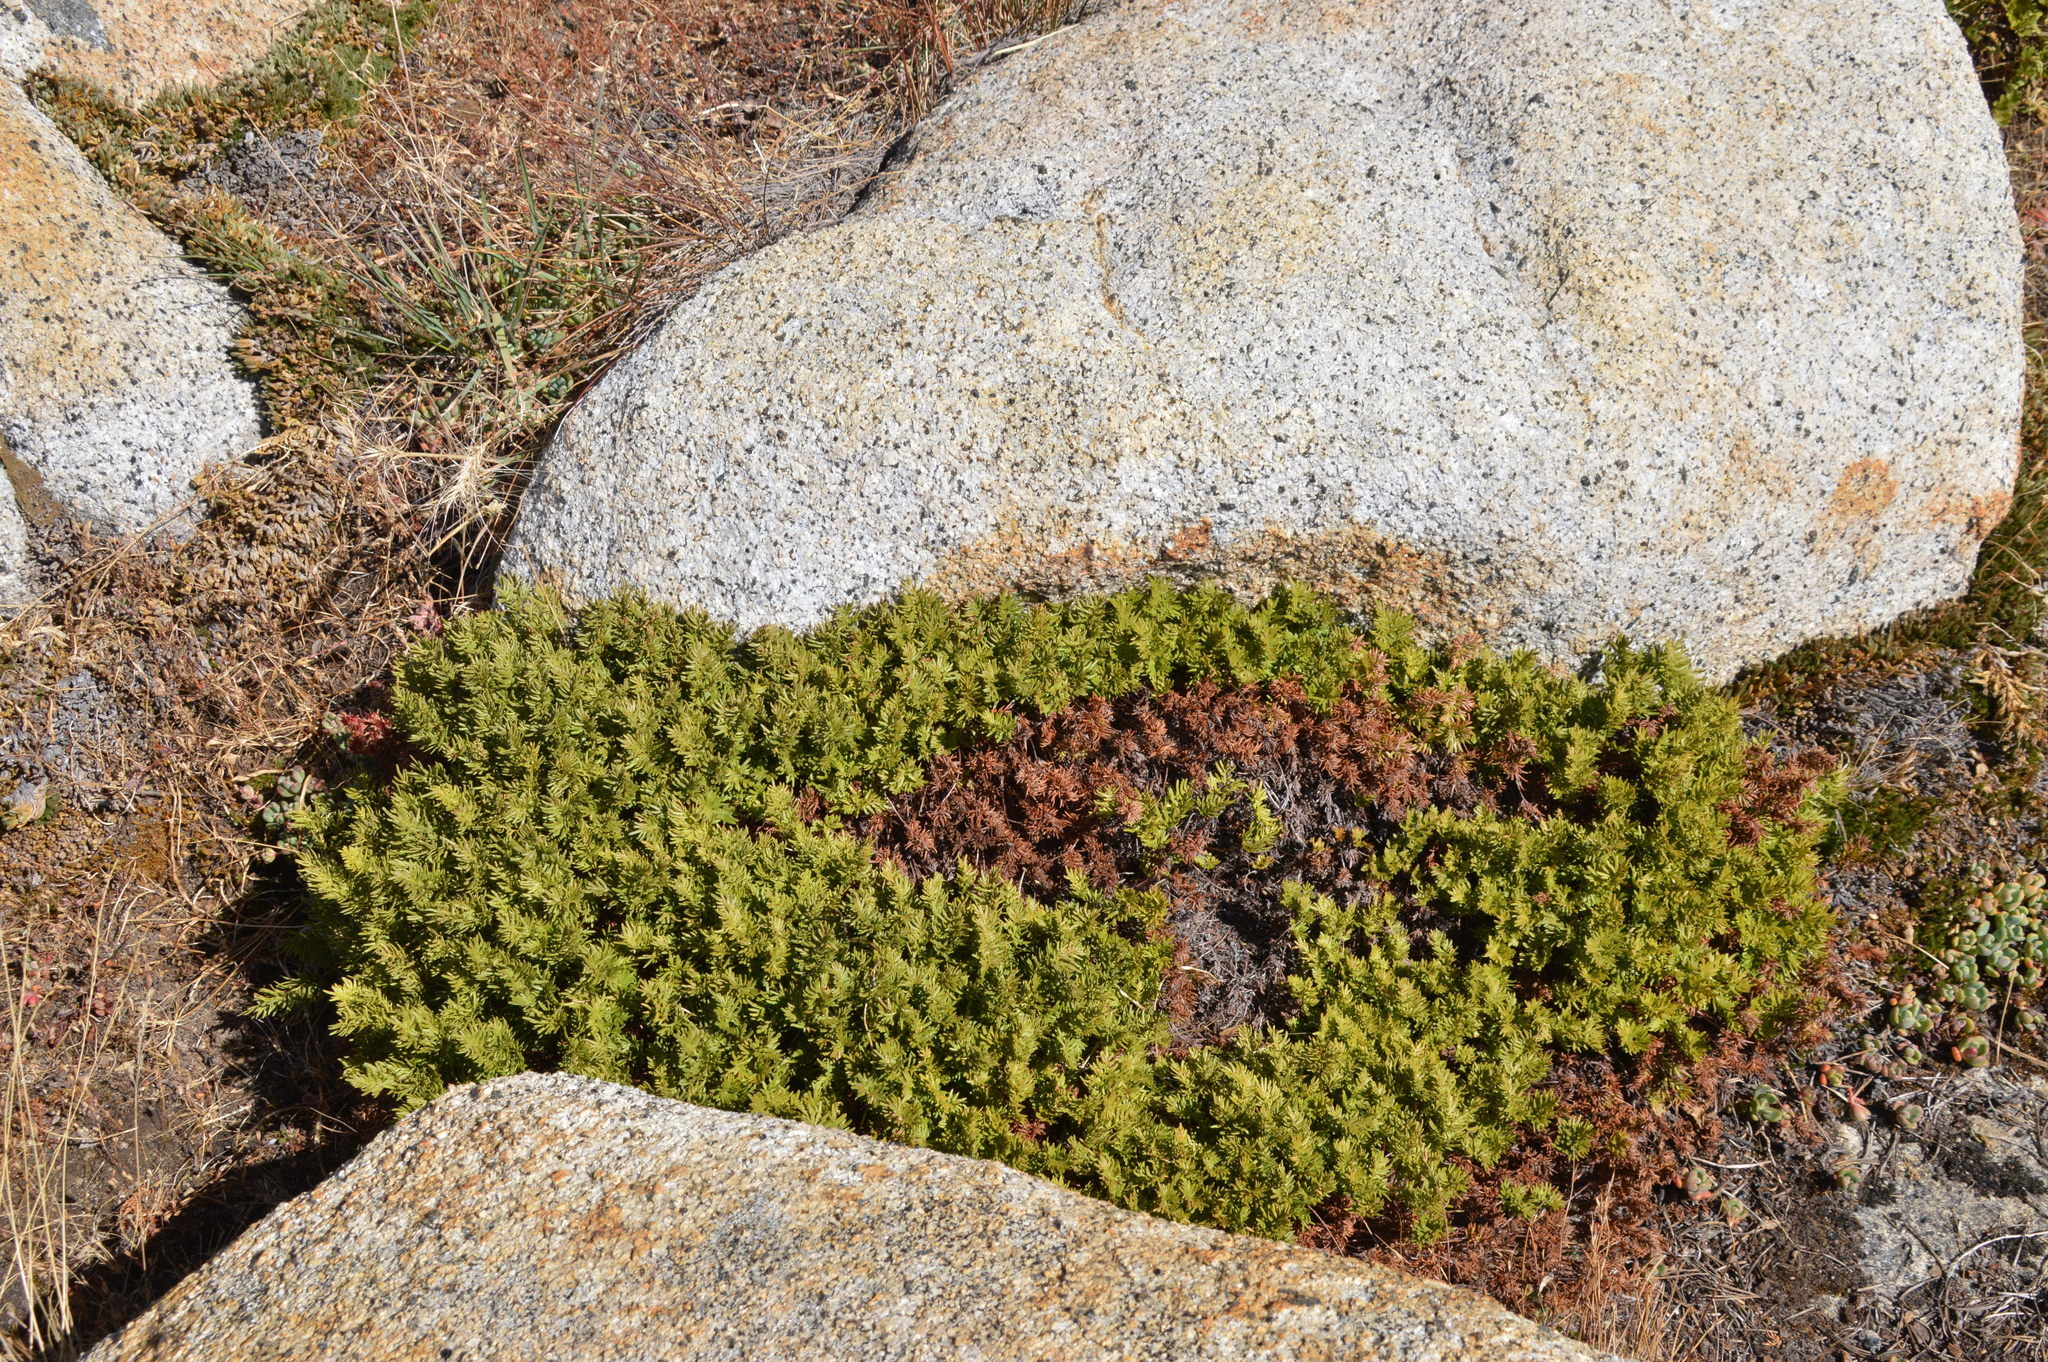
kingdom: Plantae
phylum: Tracheophyta
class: Polypodiopsida
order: Polypodiales
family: Pteridaceae
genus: Aspidotis
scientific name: Aspidotis densa
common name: Indian's dream
